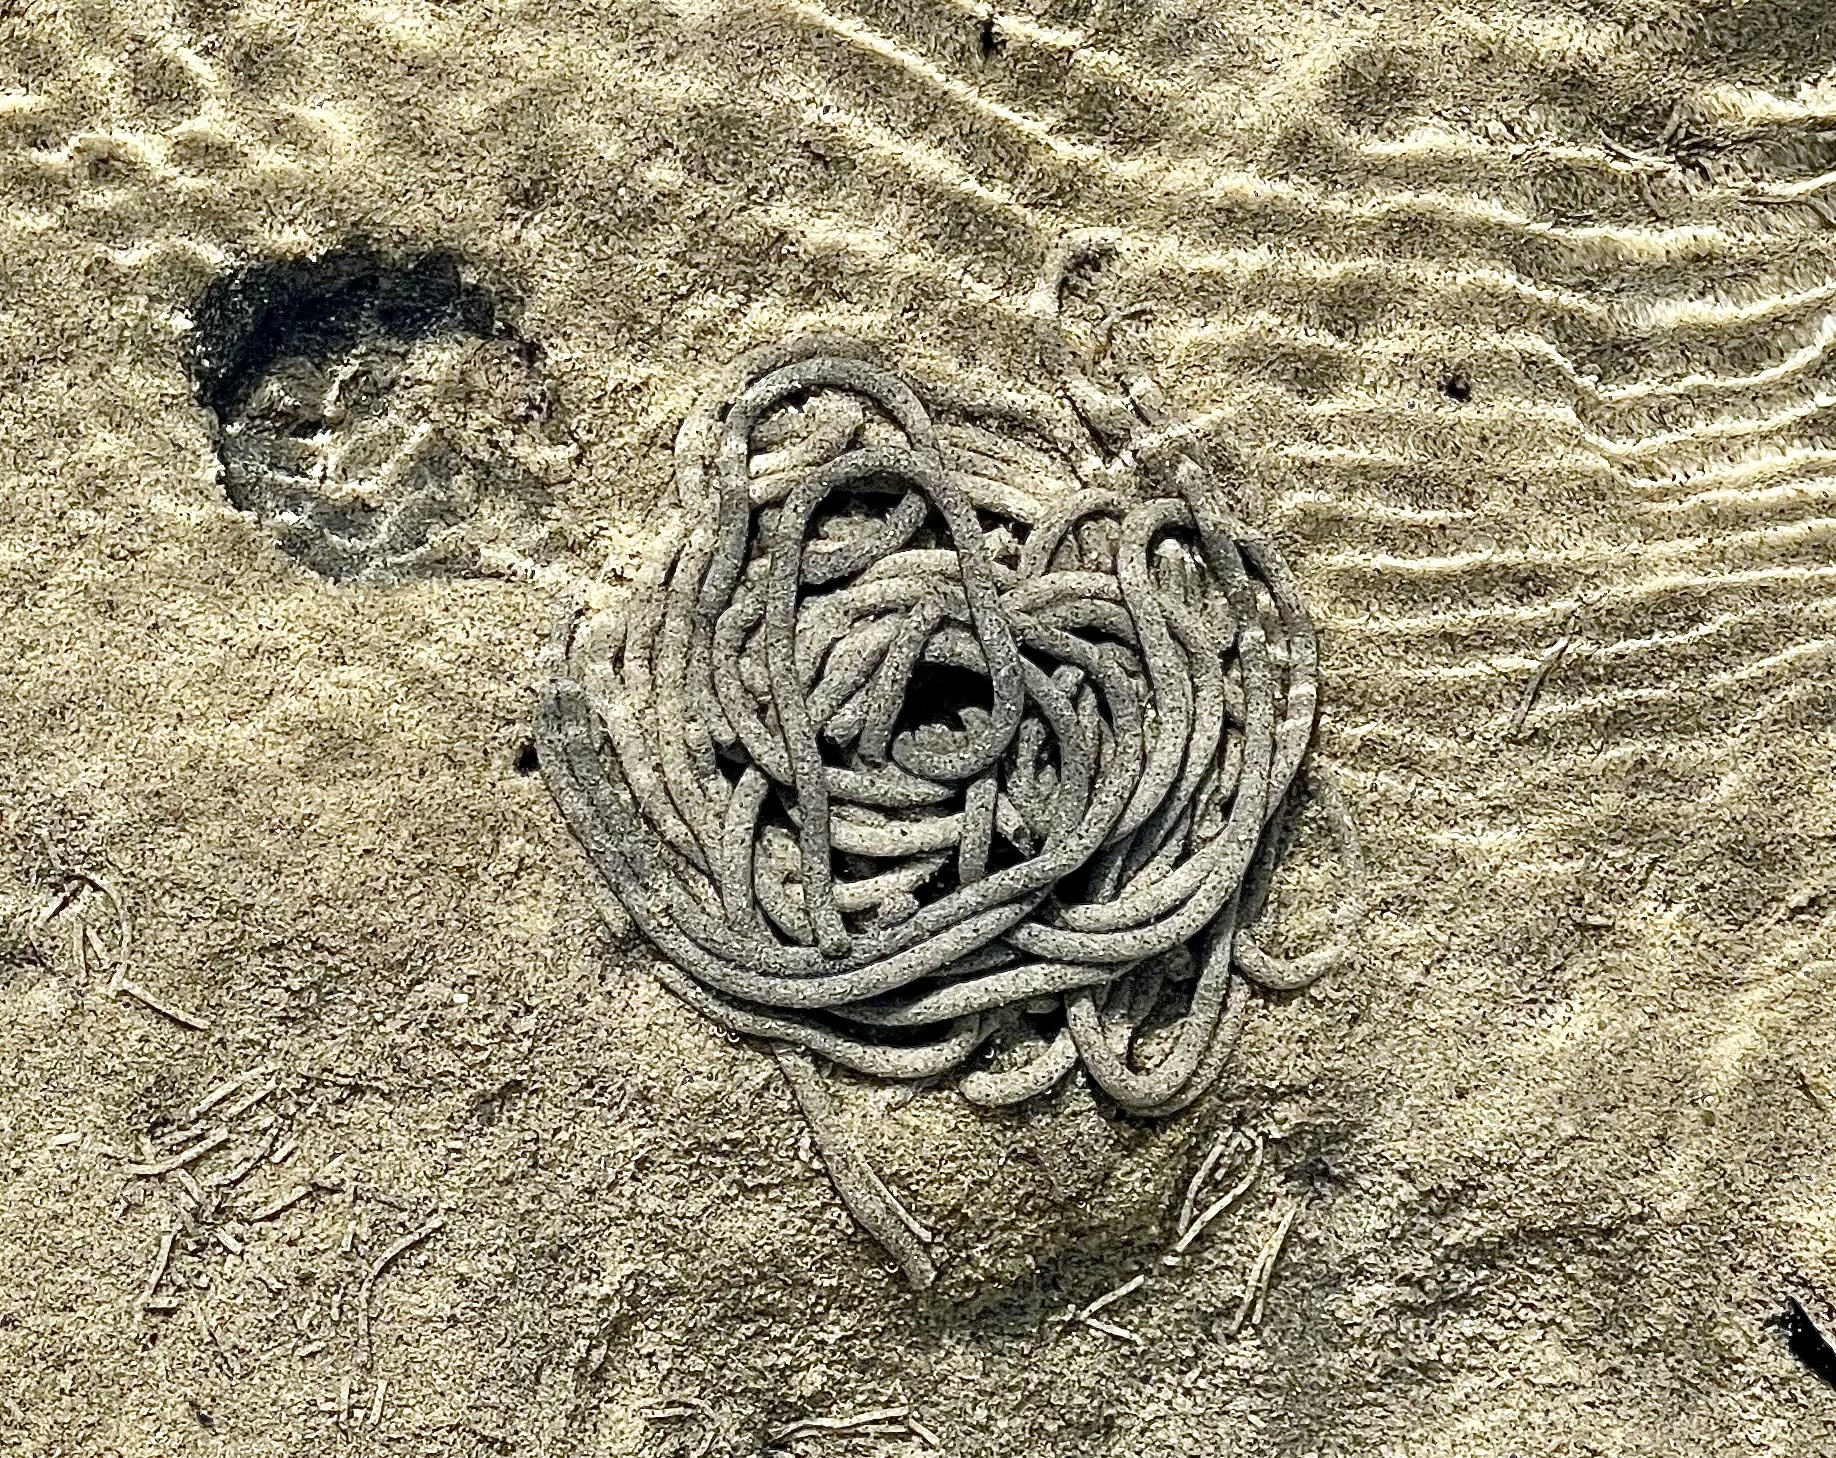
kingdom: Animalia
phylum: Annelida
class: Polychaeta
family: Arenicolidae
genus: Arenicola
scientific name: Arenicola marina
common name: Blow lugworm
